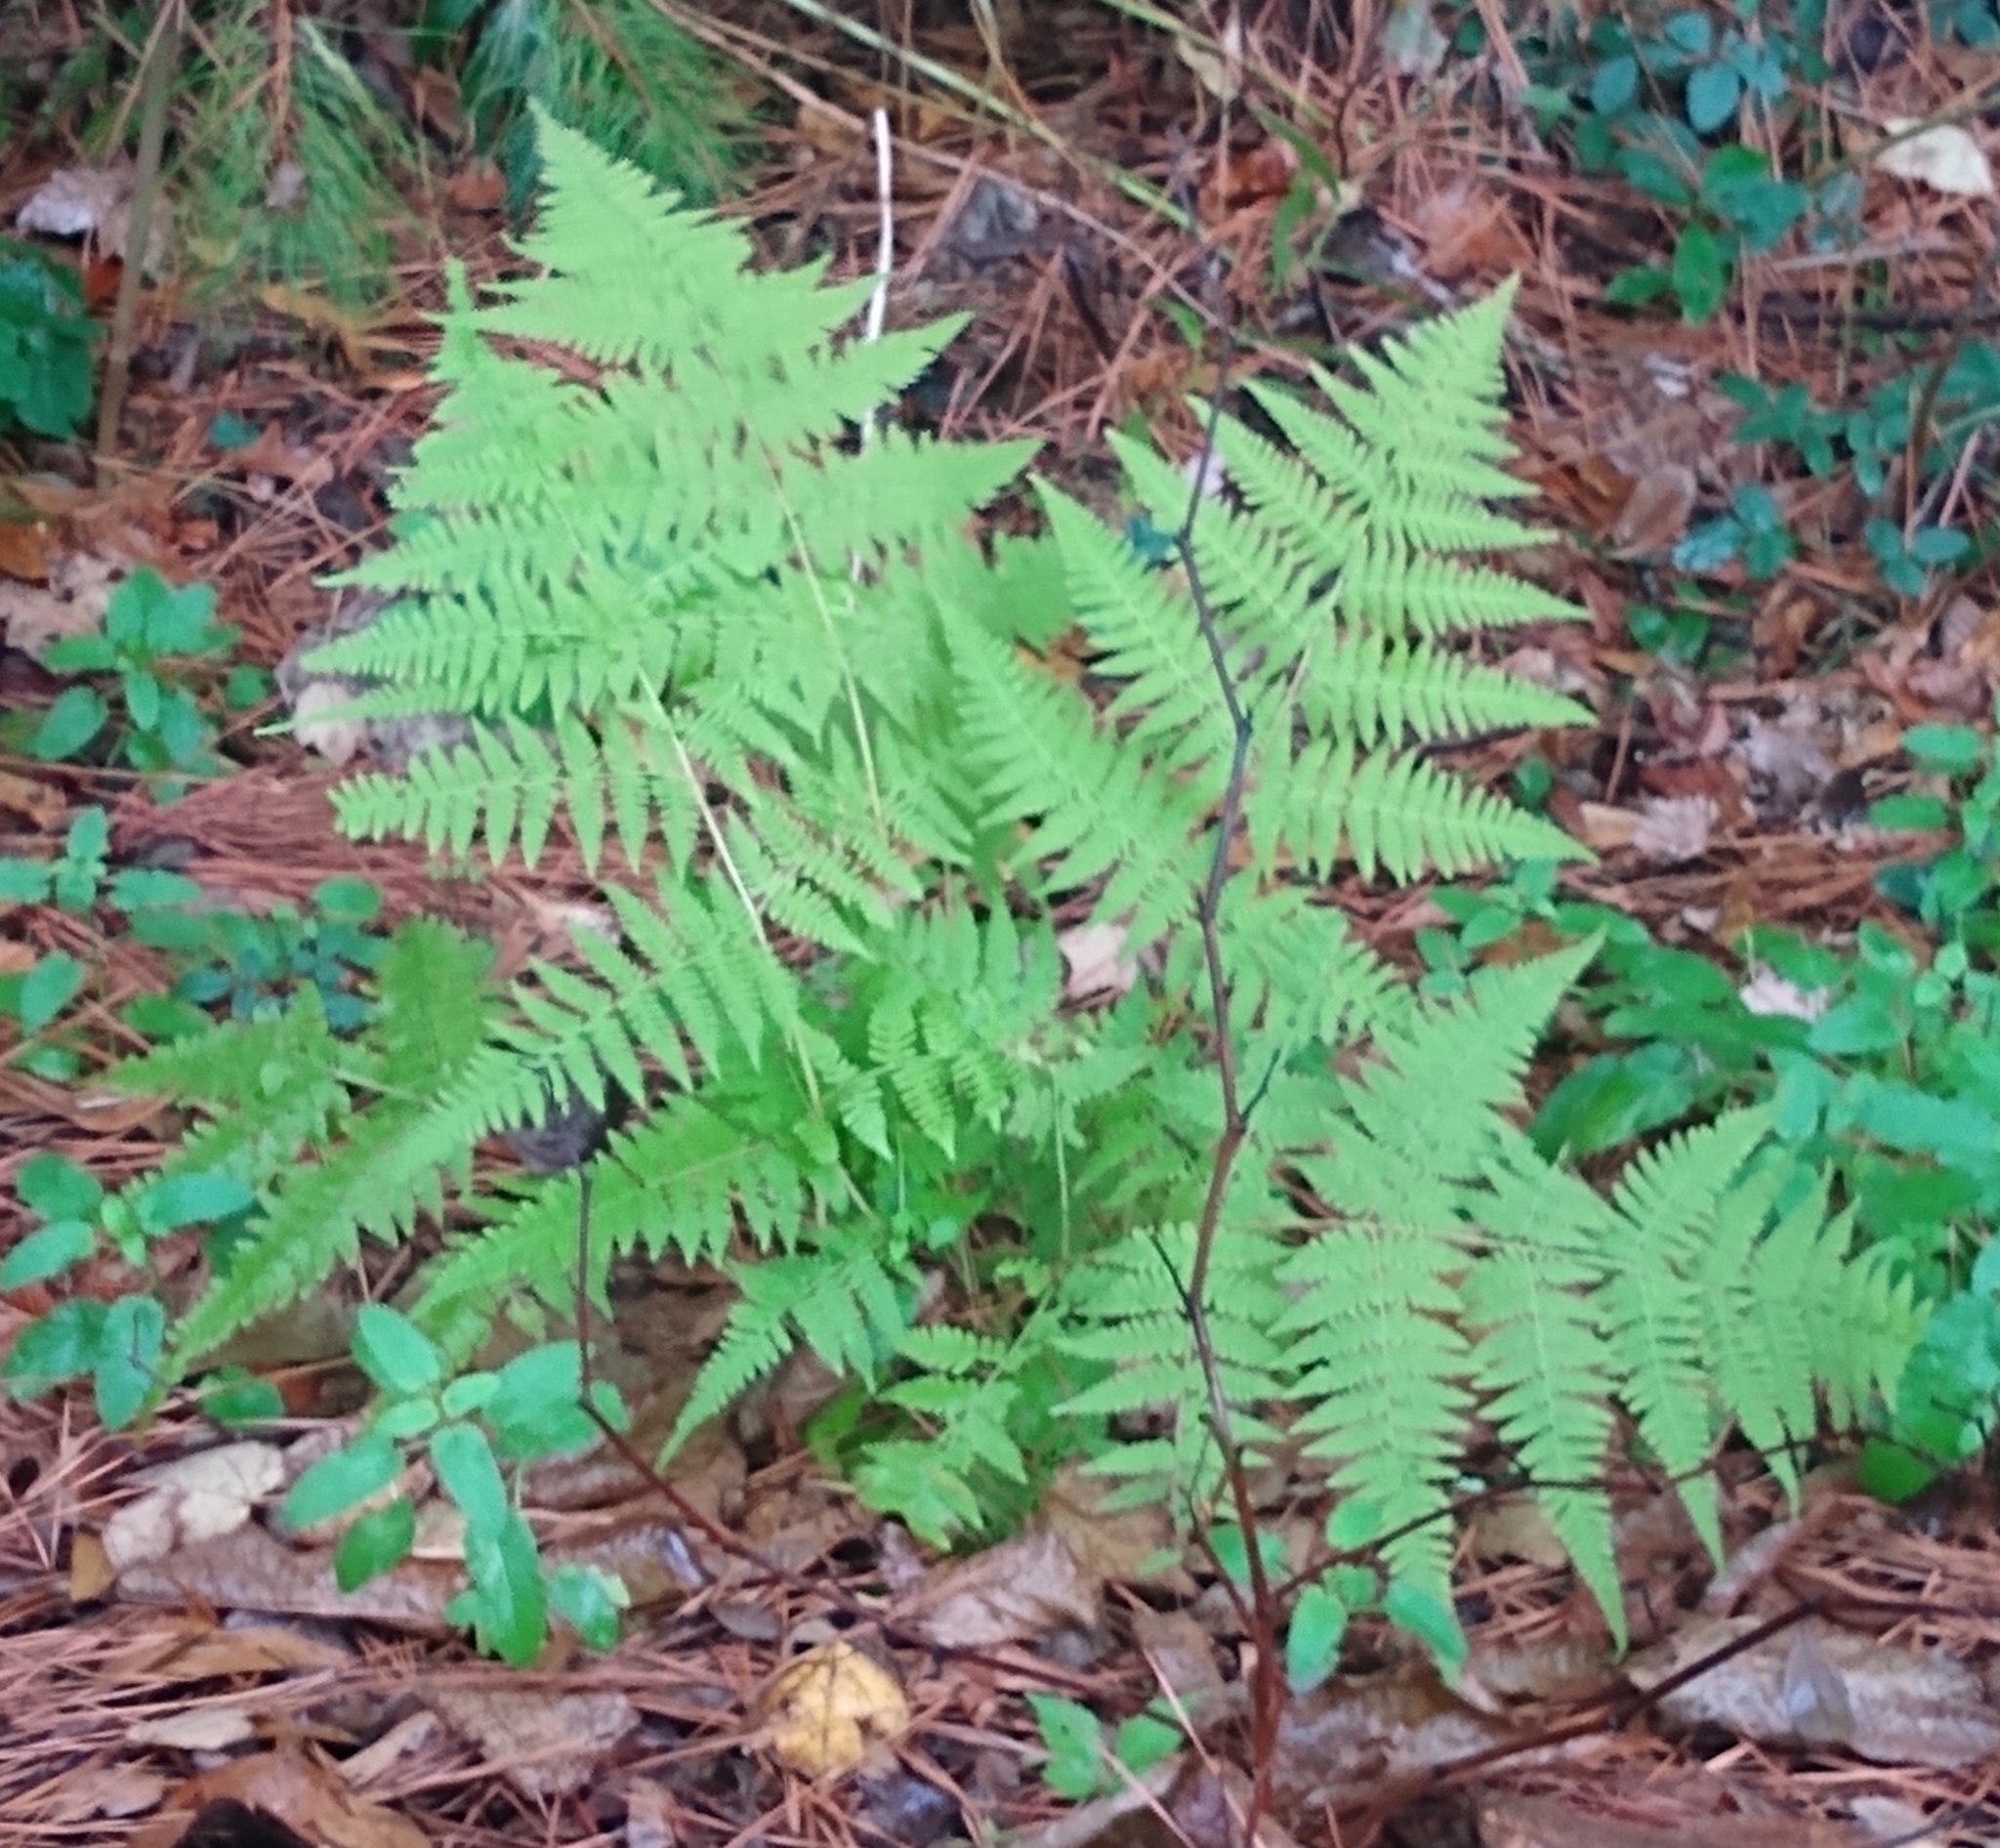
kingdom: Plantae
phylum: Tracheophyta
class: Polypodiopsida
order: Polypodiales
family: Dennstaedtiaceae
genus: Pteridium
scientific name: Pteridium aquilinum
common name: Bracken
